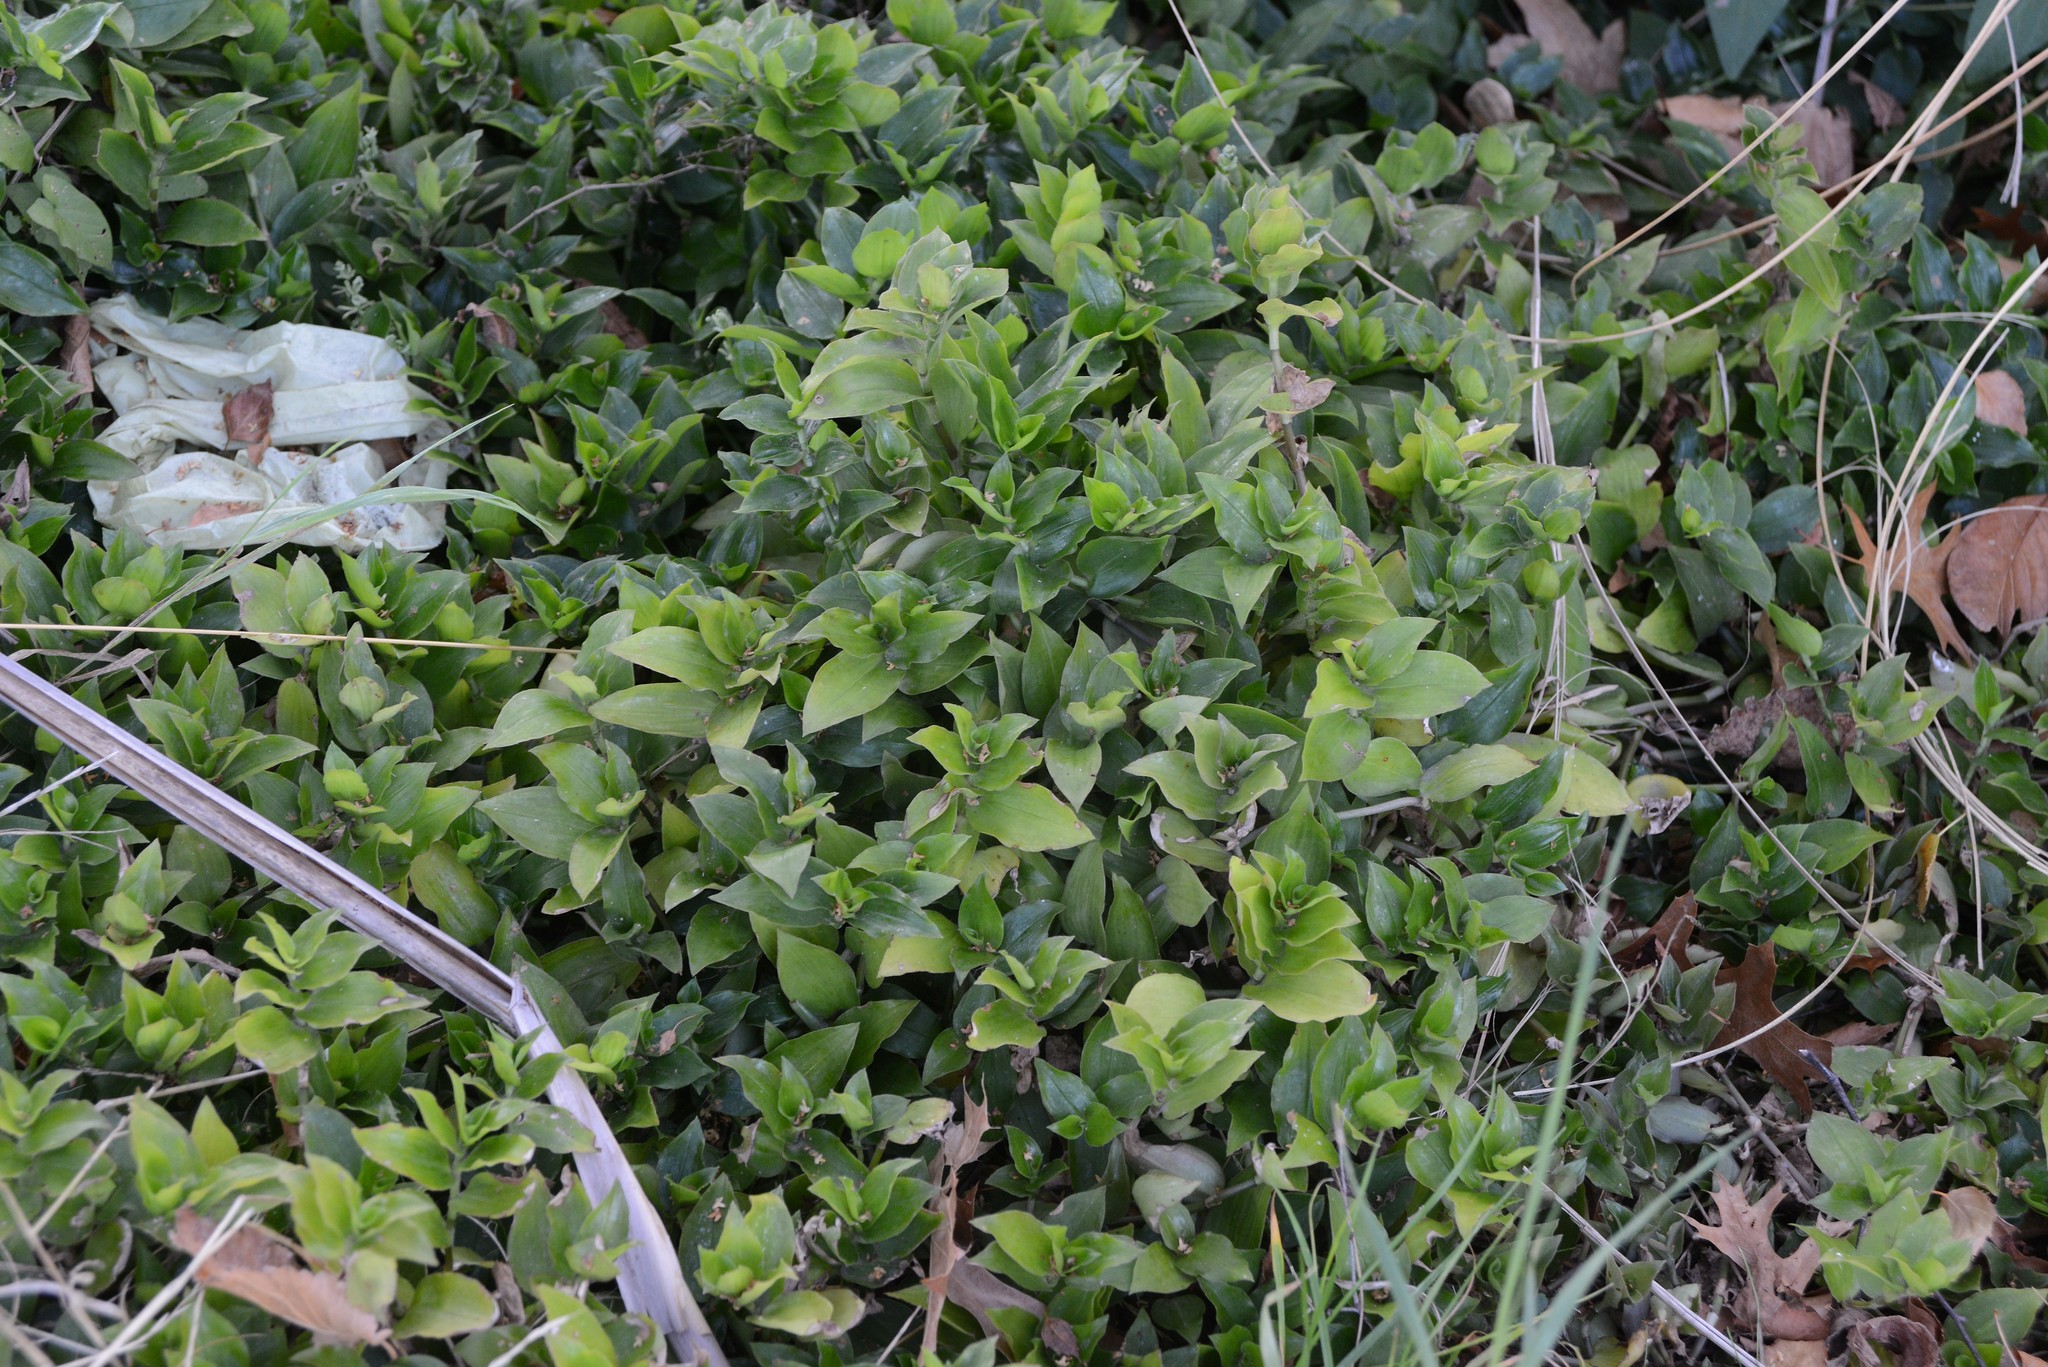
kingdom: Plantae
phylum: Tracheophyta
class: Liliopsida
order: Commelinales
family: Commelinaceae
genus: Tradescantia
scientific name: Tradescantia fluminensis
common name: Wandering-jew
